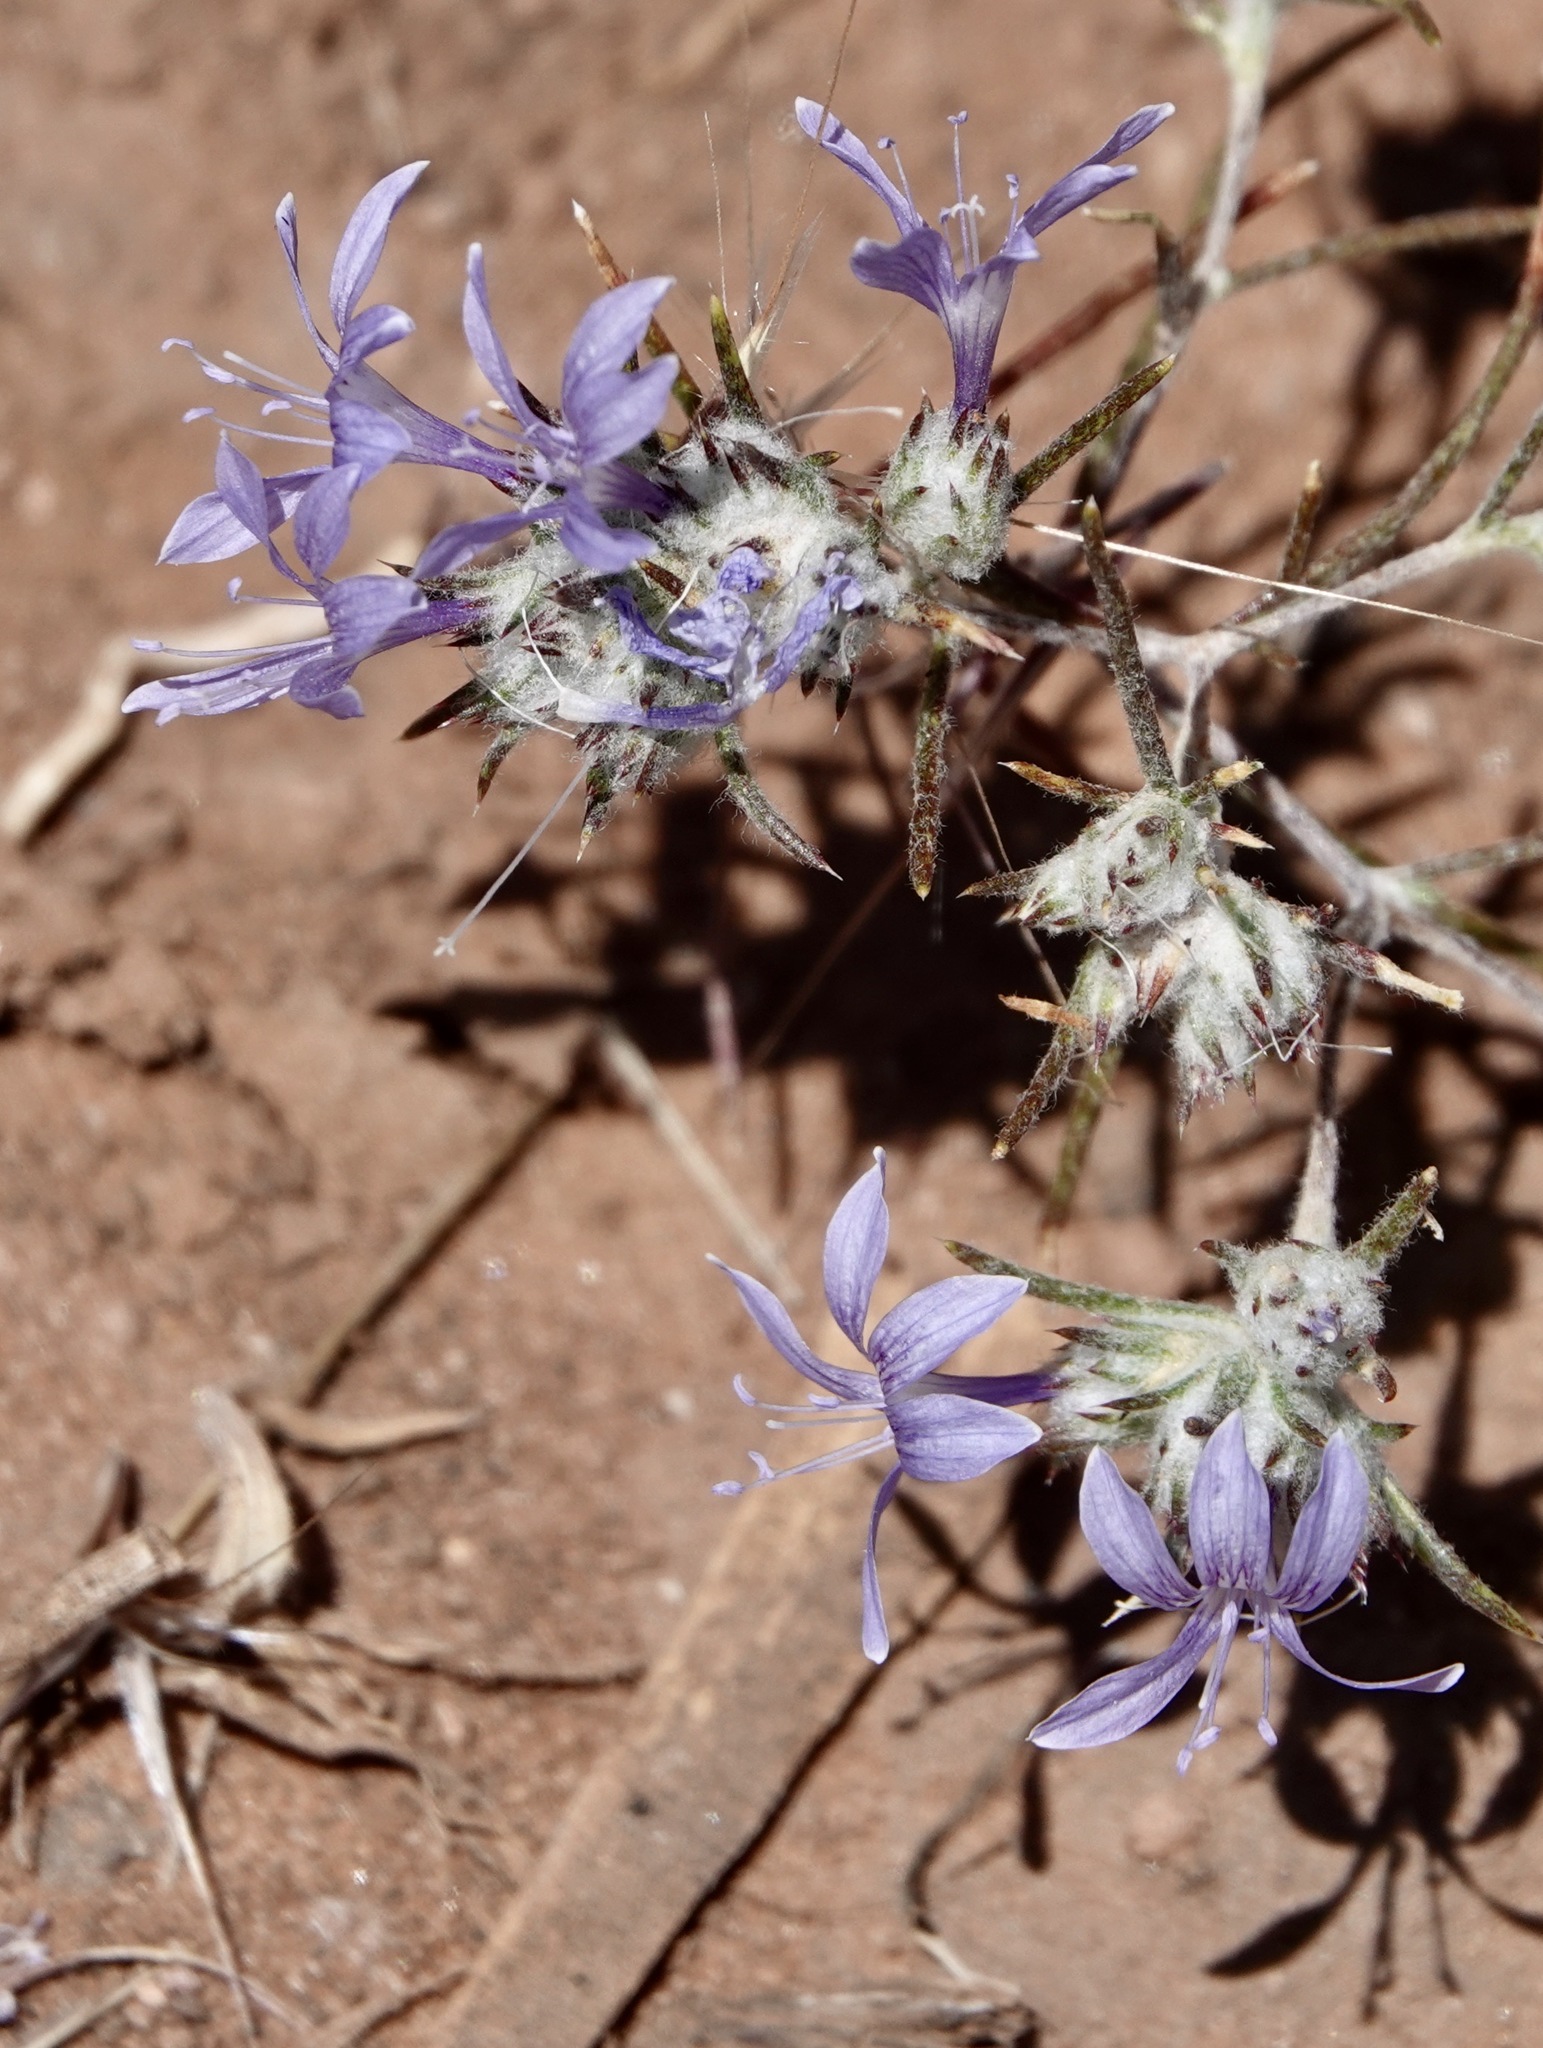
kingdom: Plantae
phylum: Tracheophyta
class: Magnoliopsida
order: Ericales
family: Polemoniaceae
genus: Eriastrum
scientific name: Eriastrum eremicum
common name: Desert eriastrum
